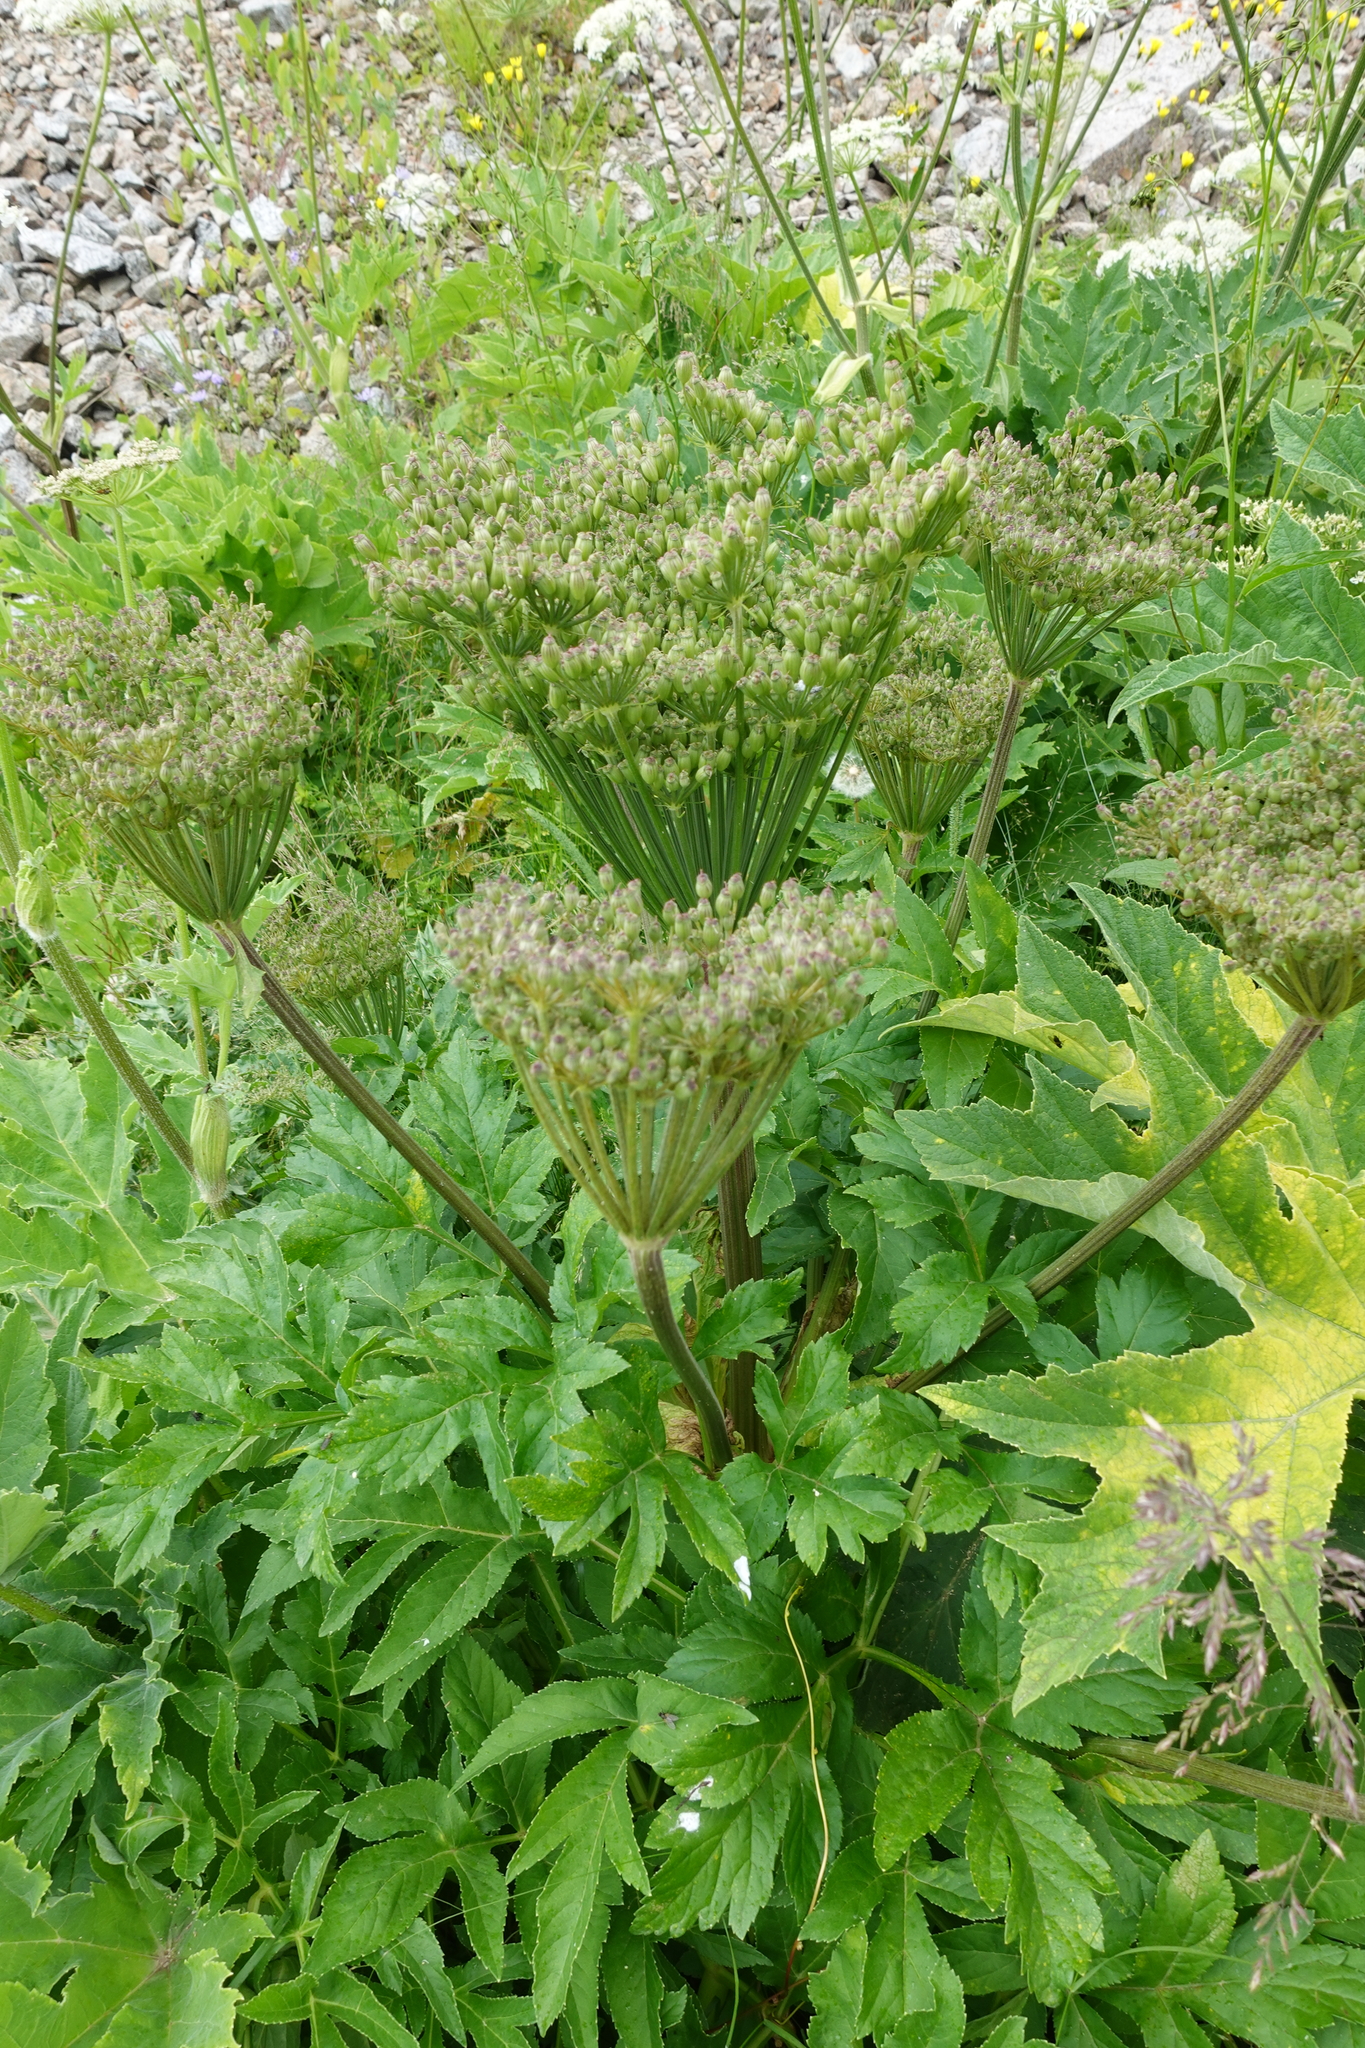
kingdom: Plantae
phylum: Tracheophyta
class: Magnoliopsida
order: Apiales
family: Apiaceae
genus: Agasyllis
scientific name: Agasyllis latifolia
